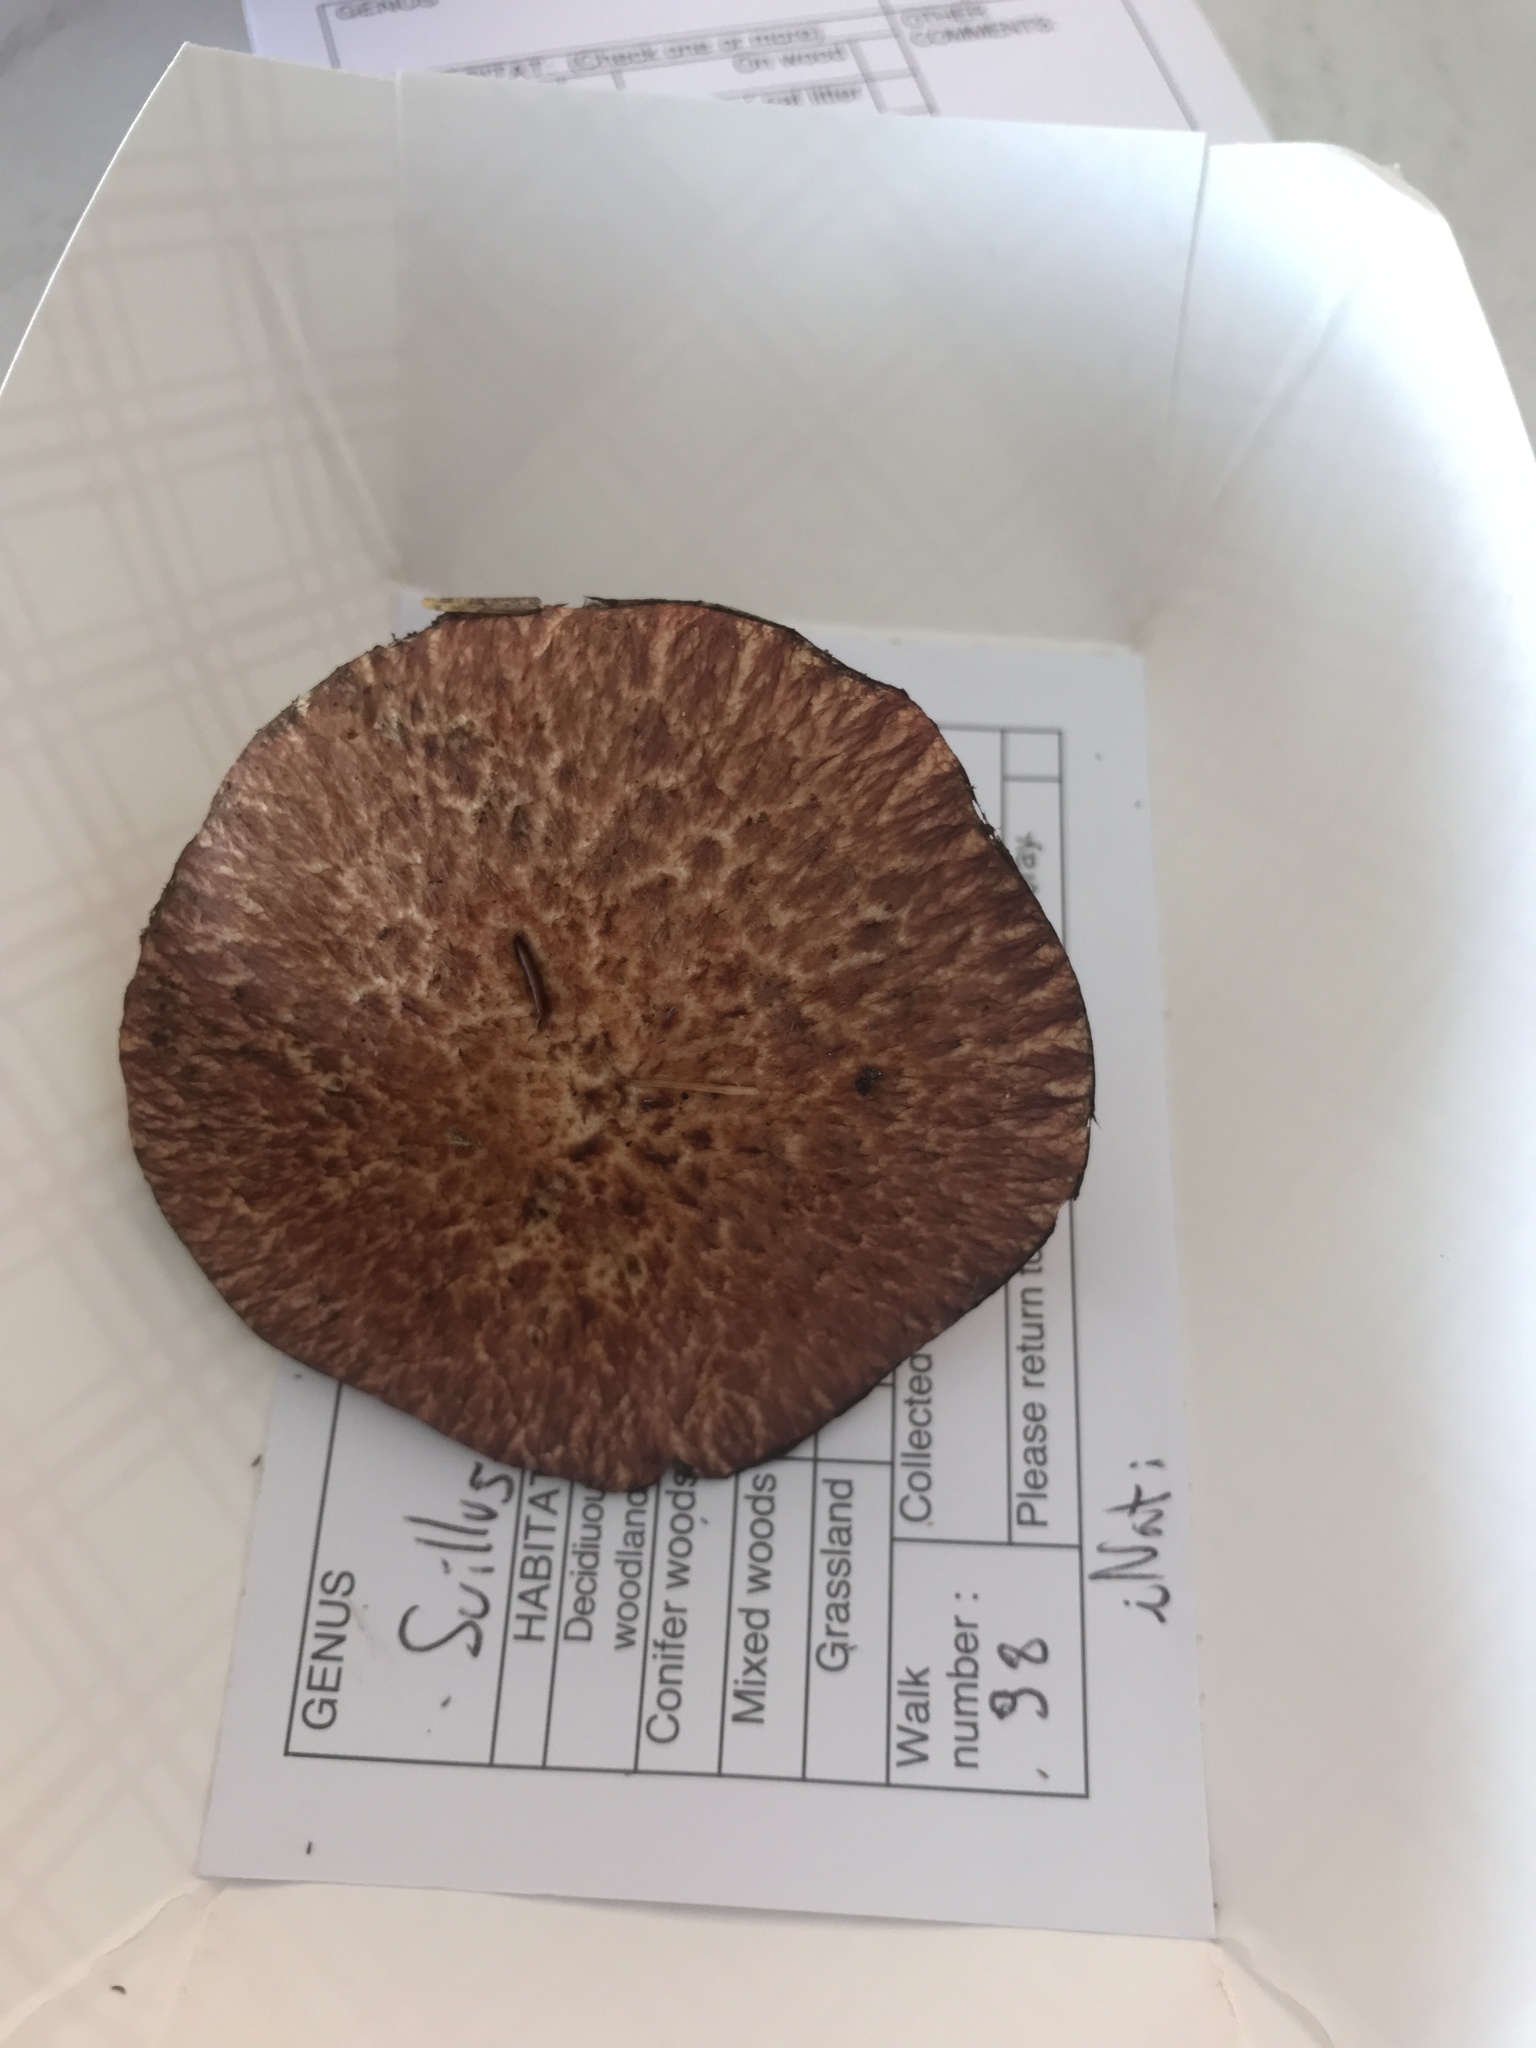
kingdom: Fungi
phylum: Basidiomycota
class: Agaricomycetes
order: Boletales
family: Suillaceae
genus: Suillus
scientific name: Suillus spraguei
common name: Painted suillus
